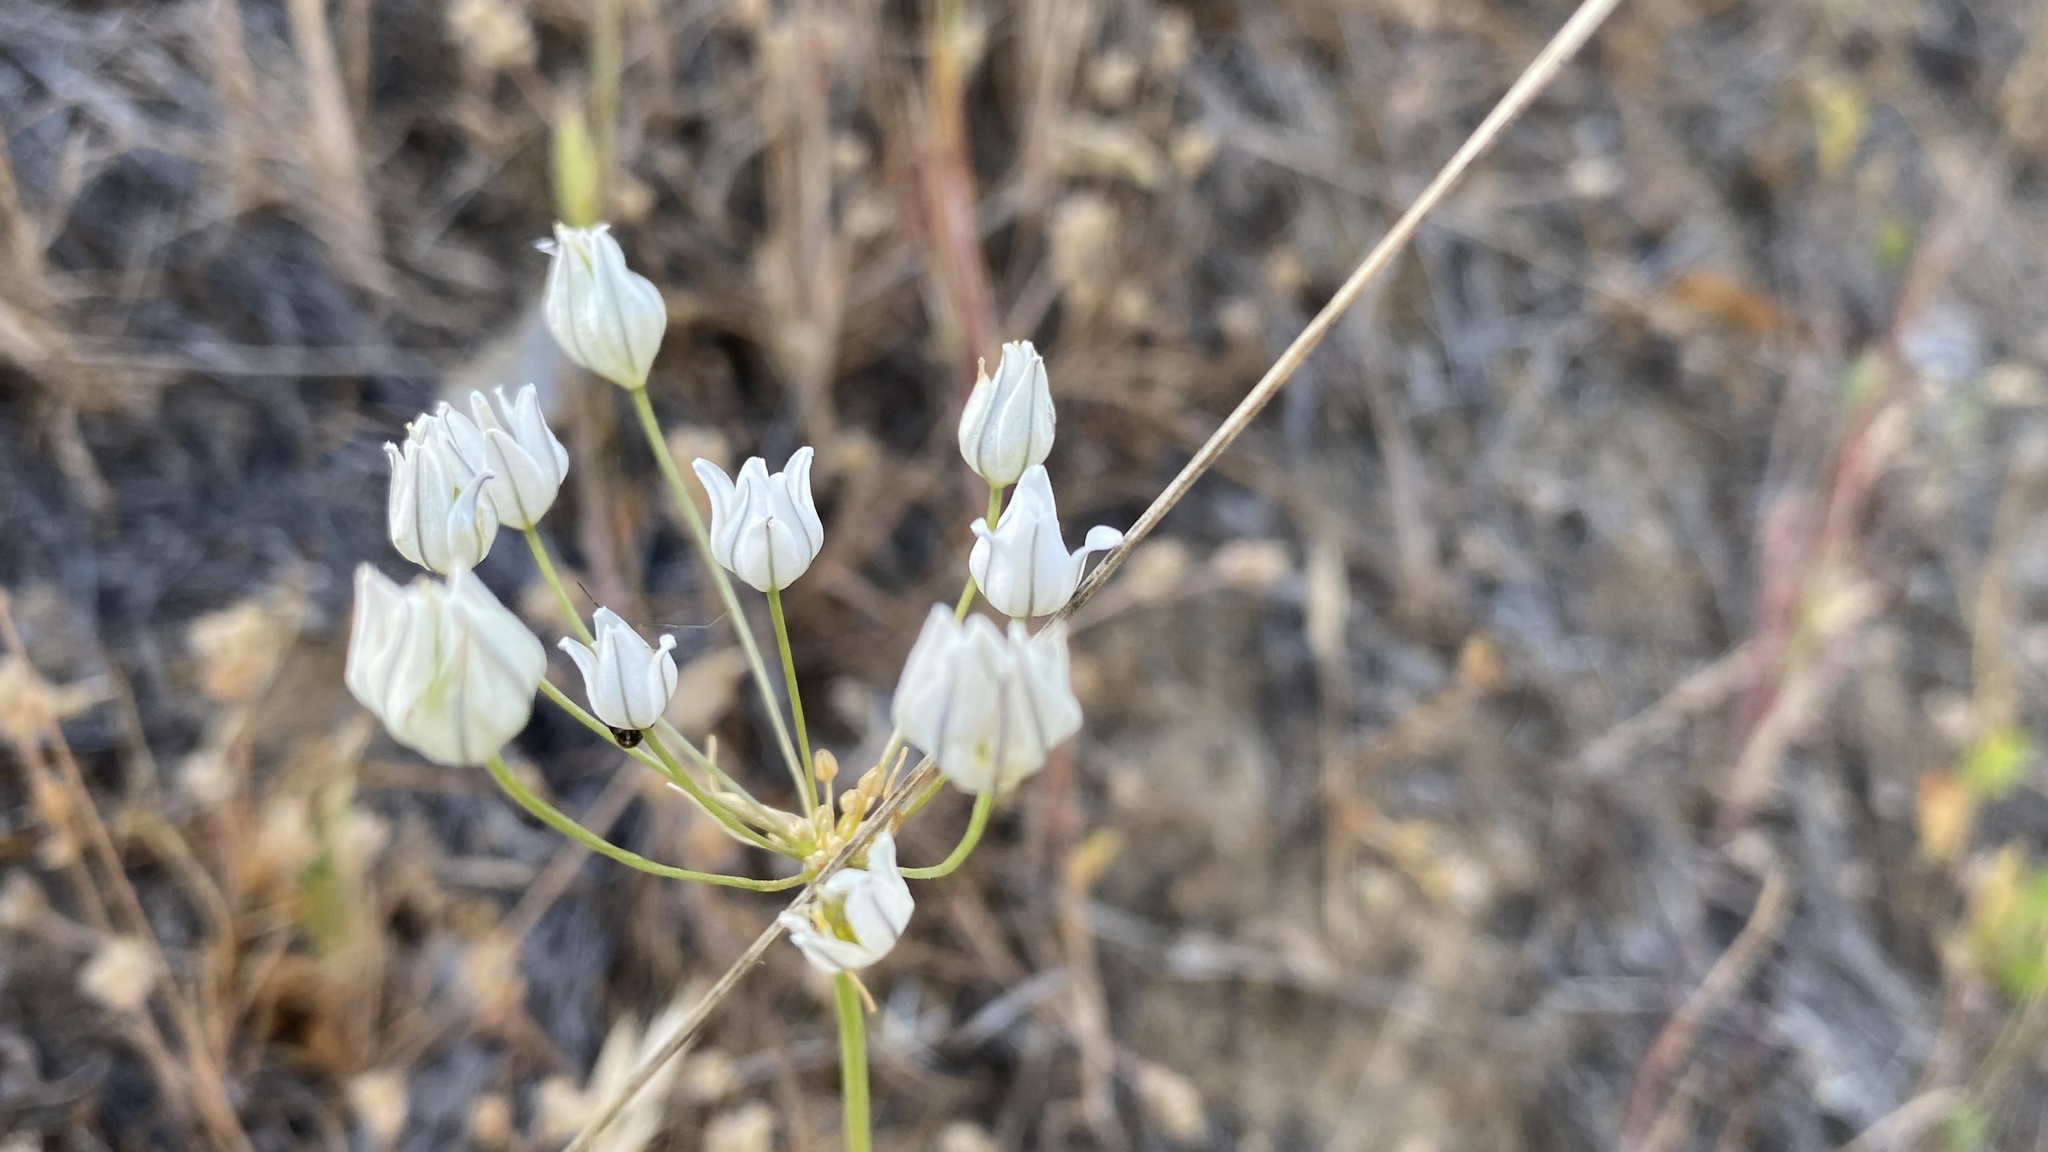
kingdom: Plantae
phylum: Tracheophyta
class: Liliopsida
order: Asparagales
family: Asparagaceae
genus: Triteleia
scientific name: Triteleia hyacinthina
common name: White brodiaea
